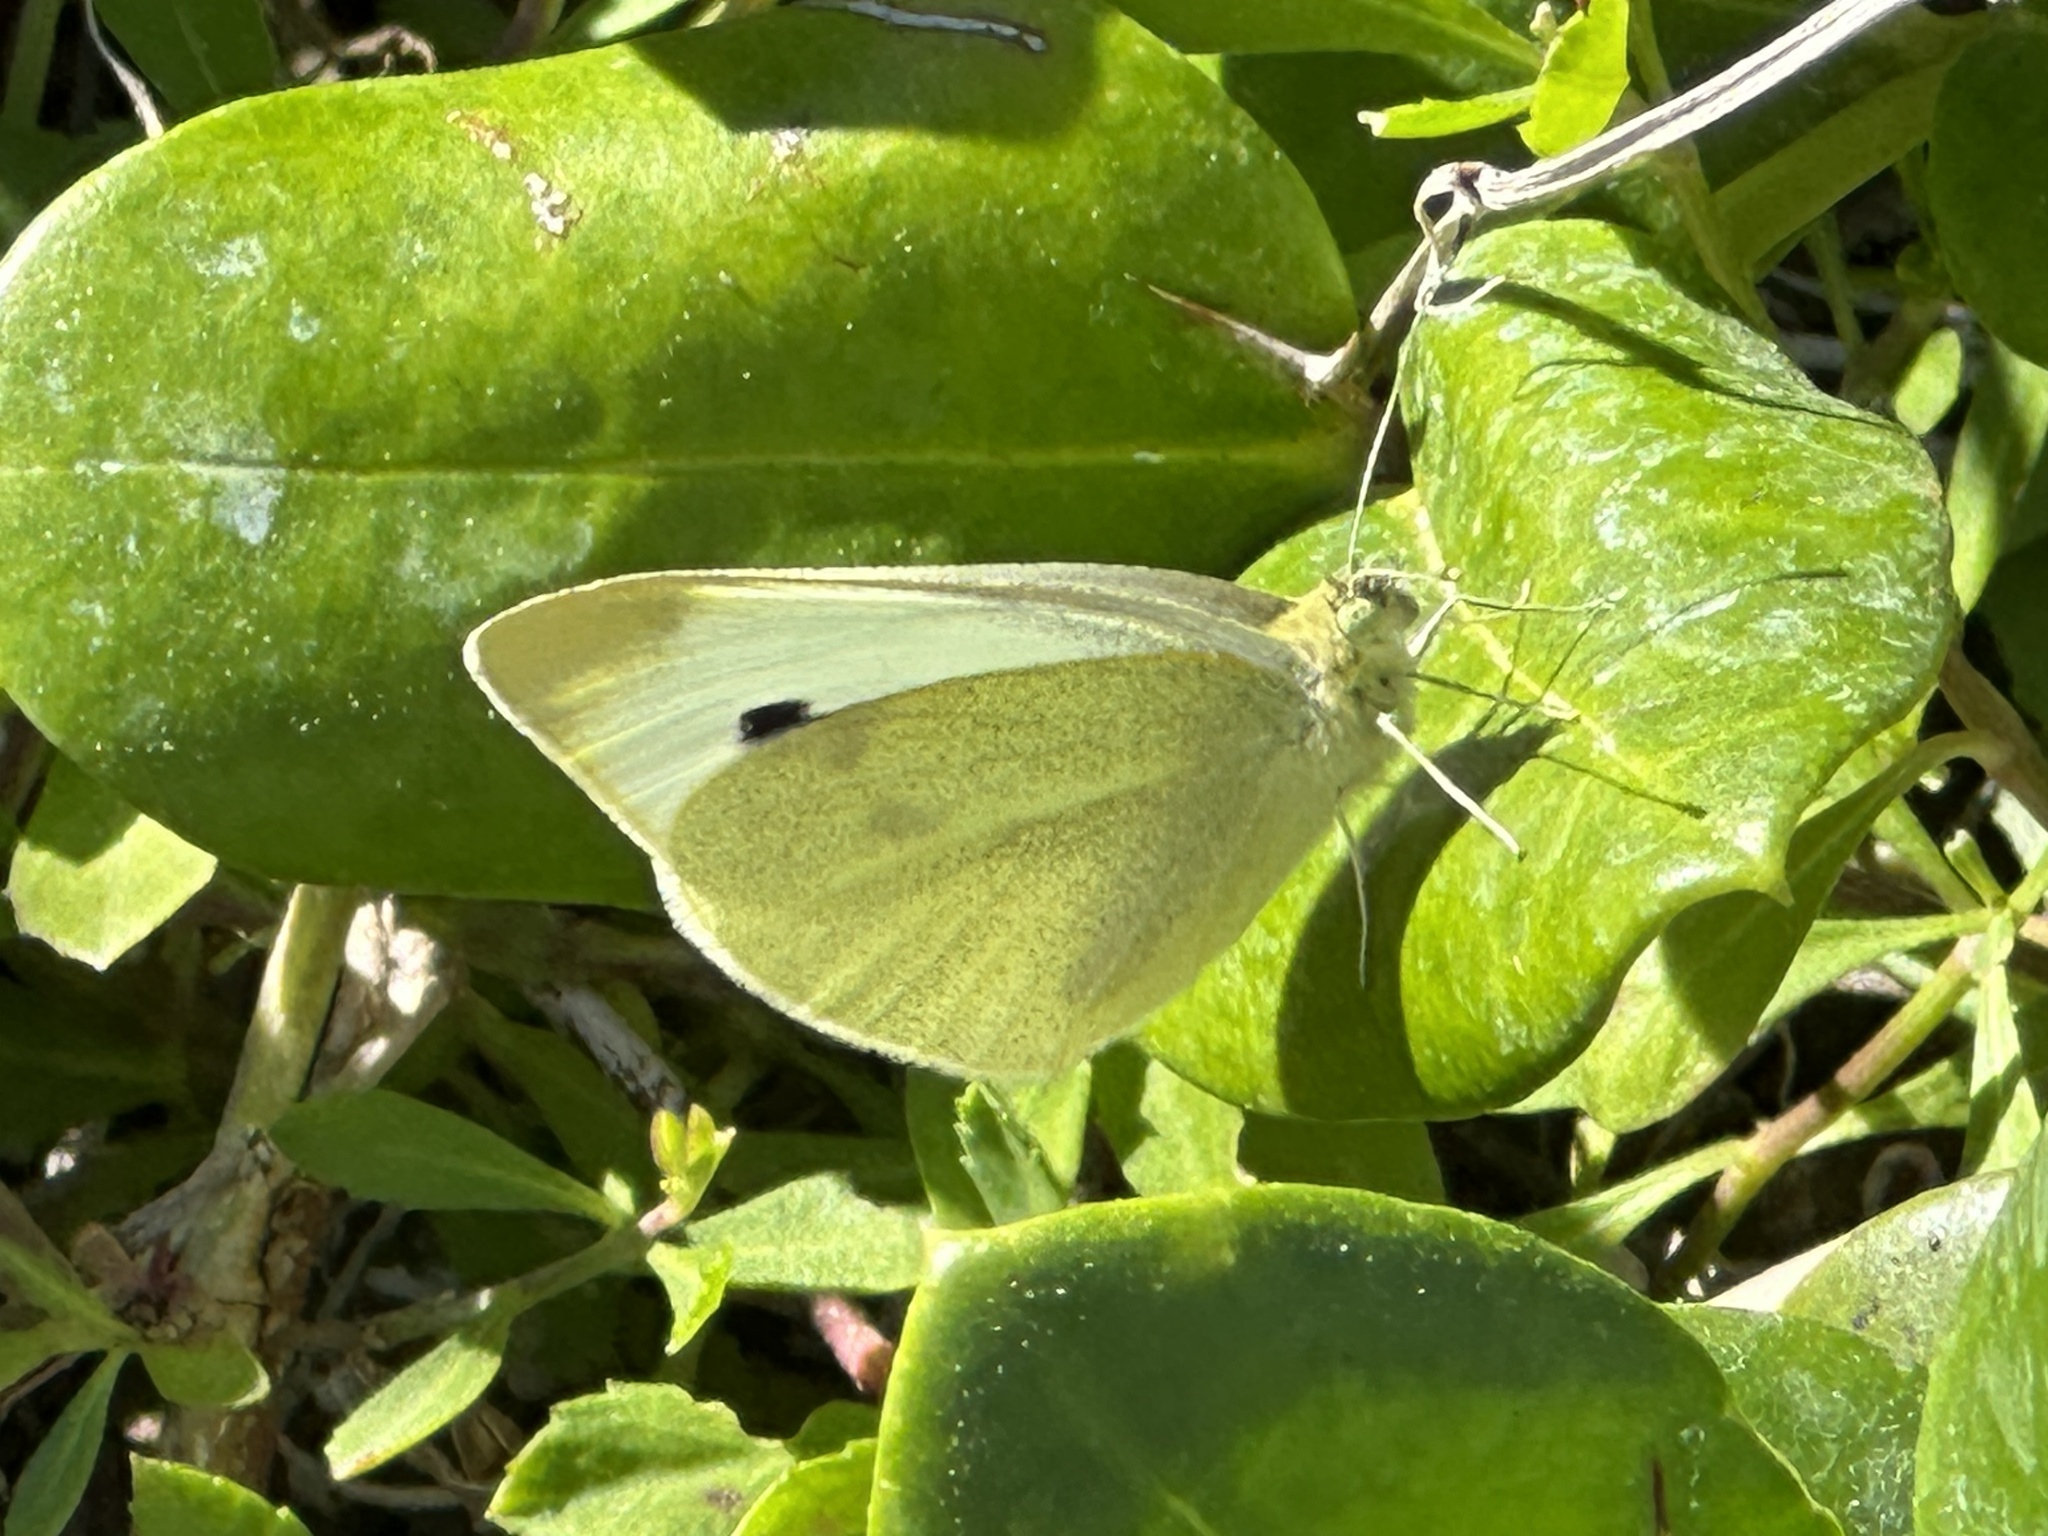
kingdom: Animalia
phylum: Arthropoda
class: Insecta
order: Lepidoptera
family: Pieridae
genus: Pieris
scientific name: Pieris rapae
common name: Small white
